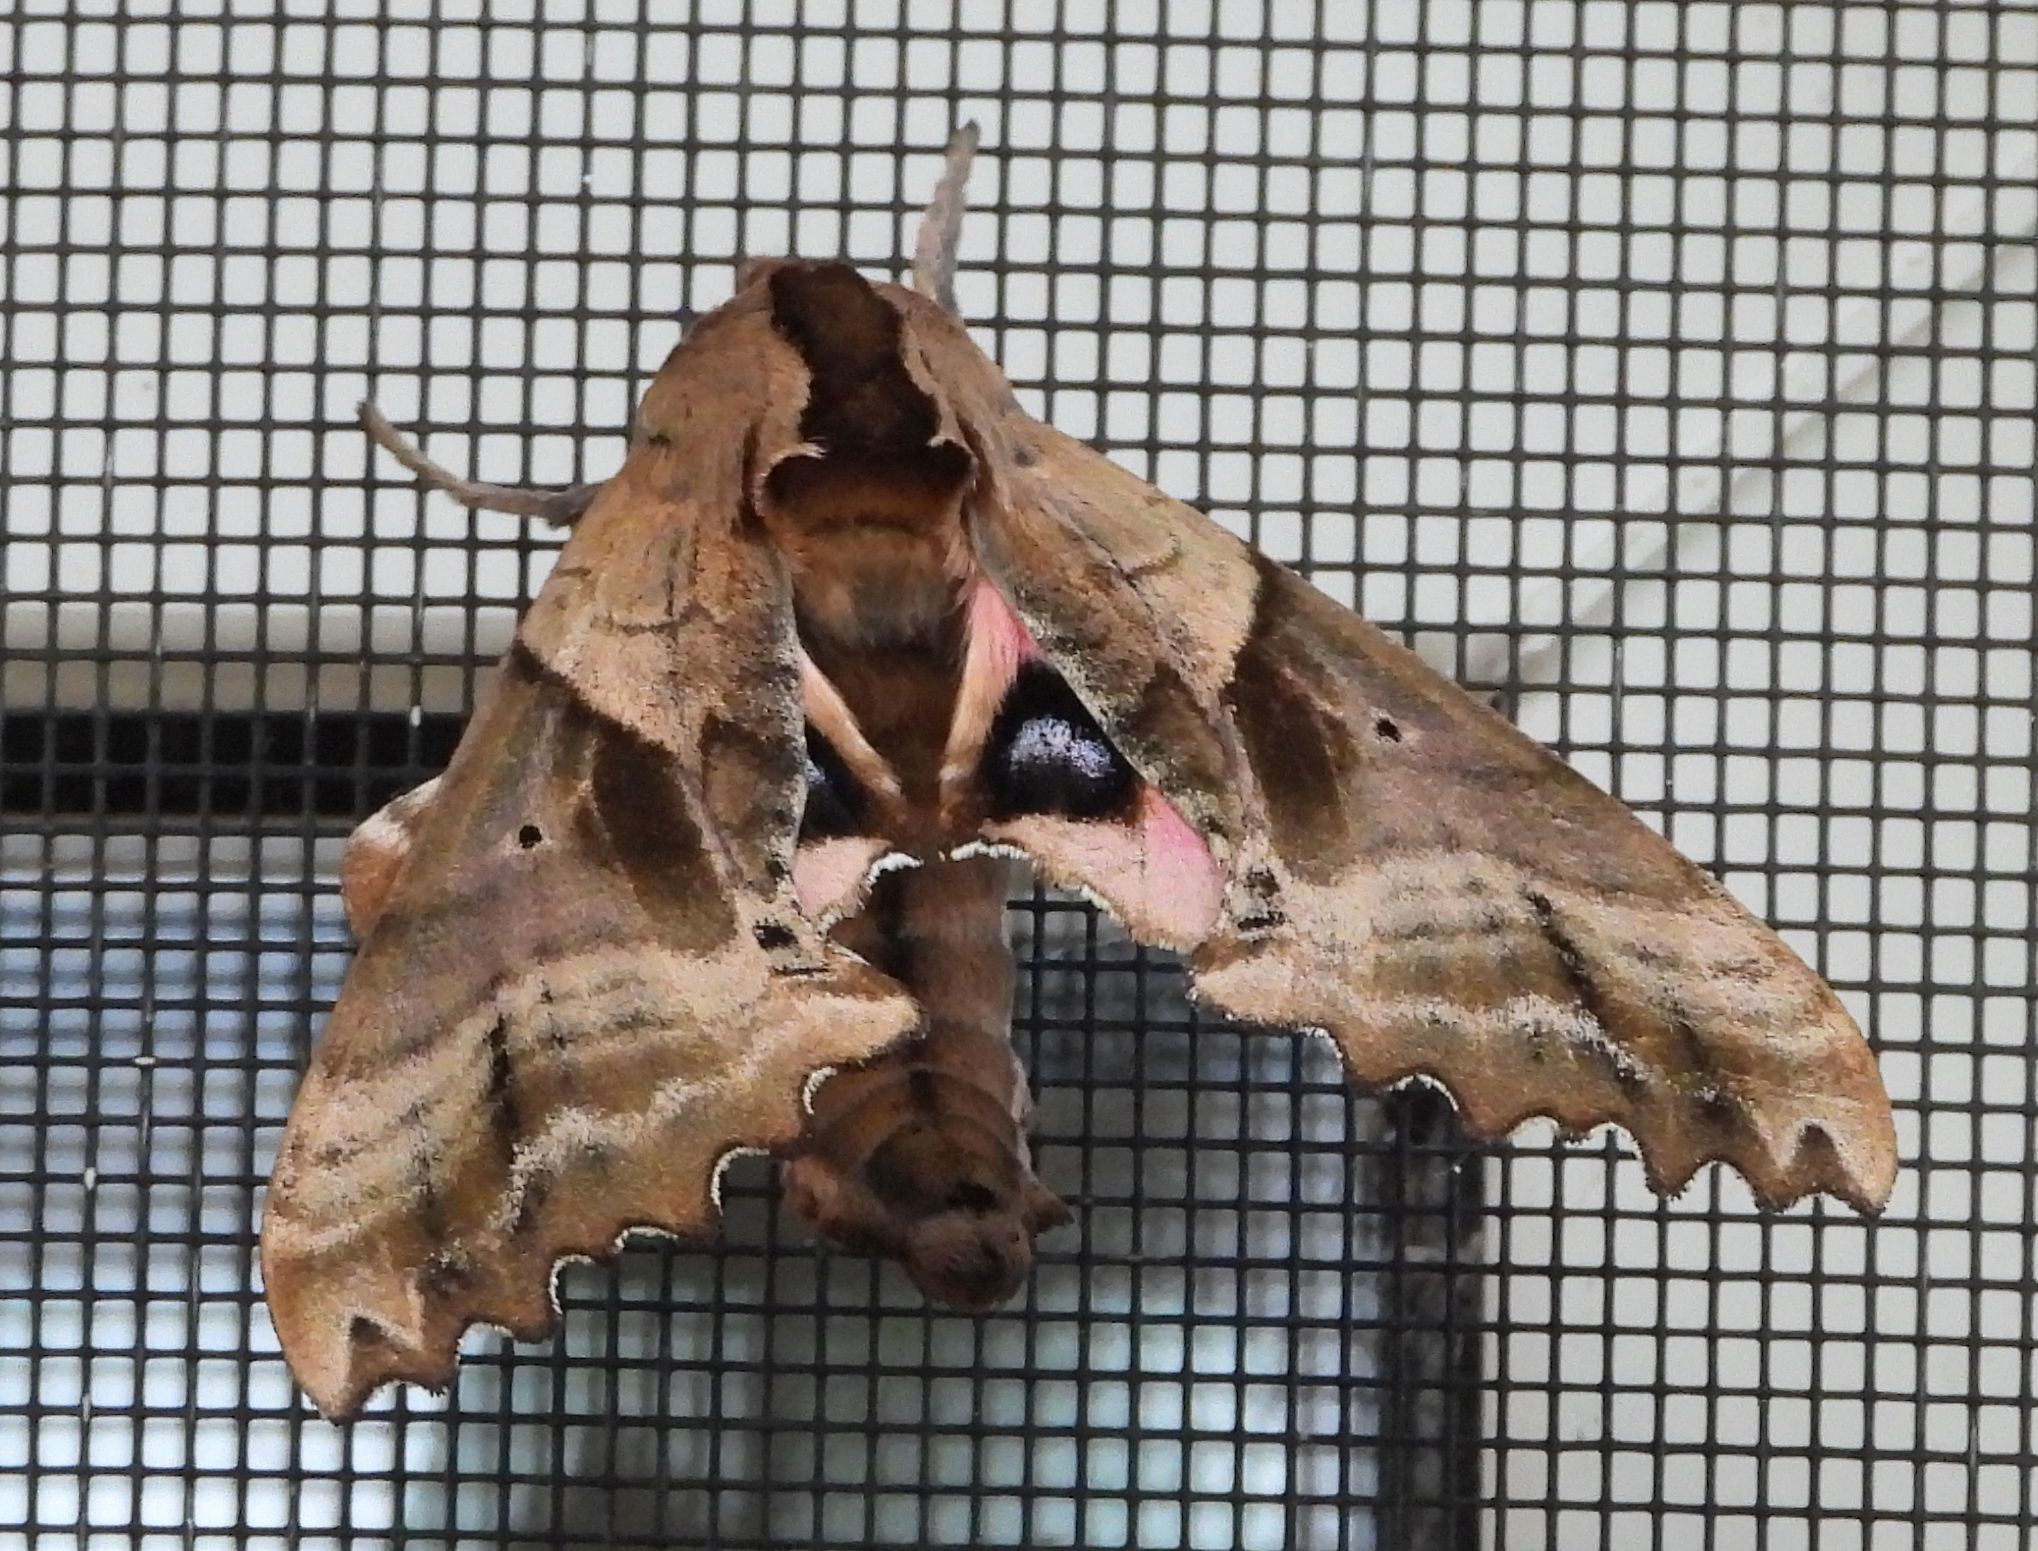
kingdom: Animalia
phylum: Arthropoda
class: Insecta
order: Lepidoptera
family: Sphingidae
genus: Paonias
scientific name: Paonias excaecata
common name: Blind-eyed sphinx
